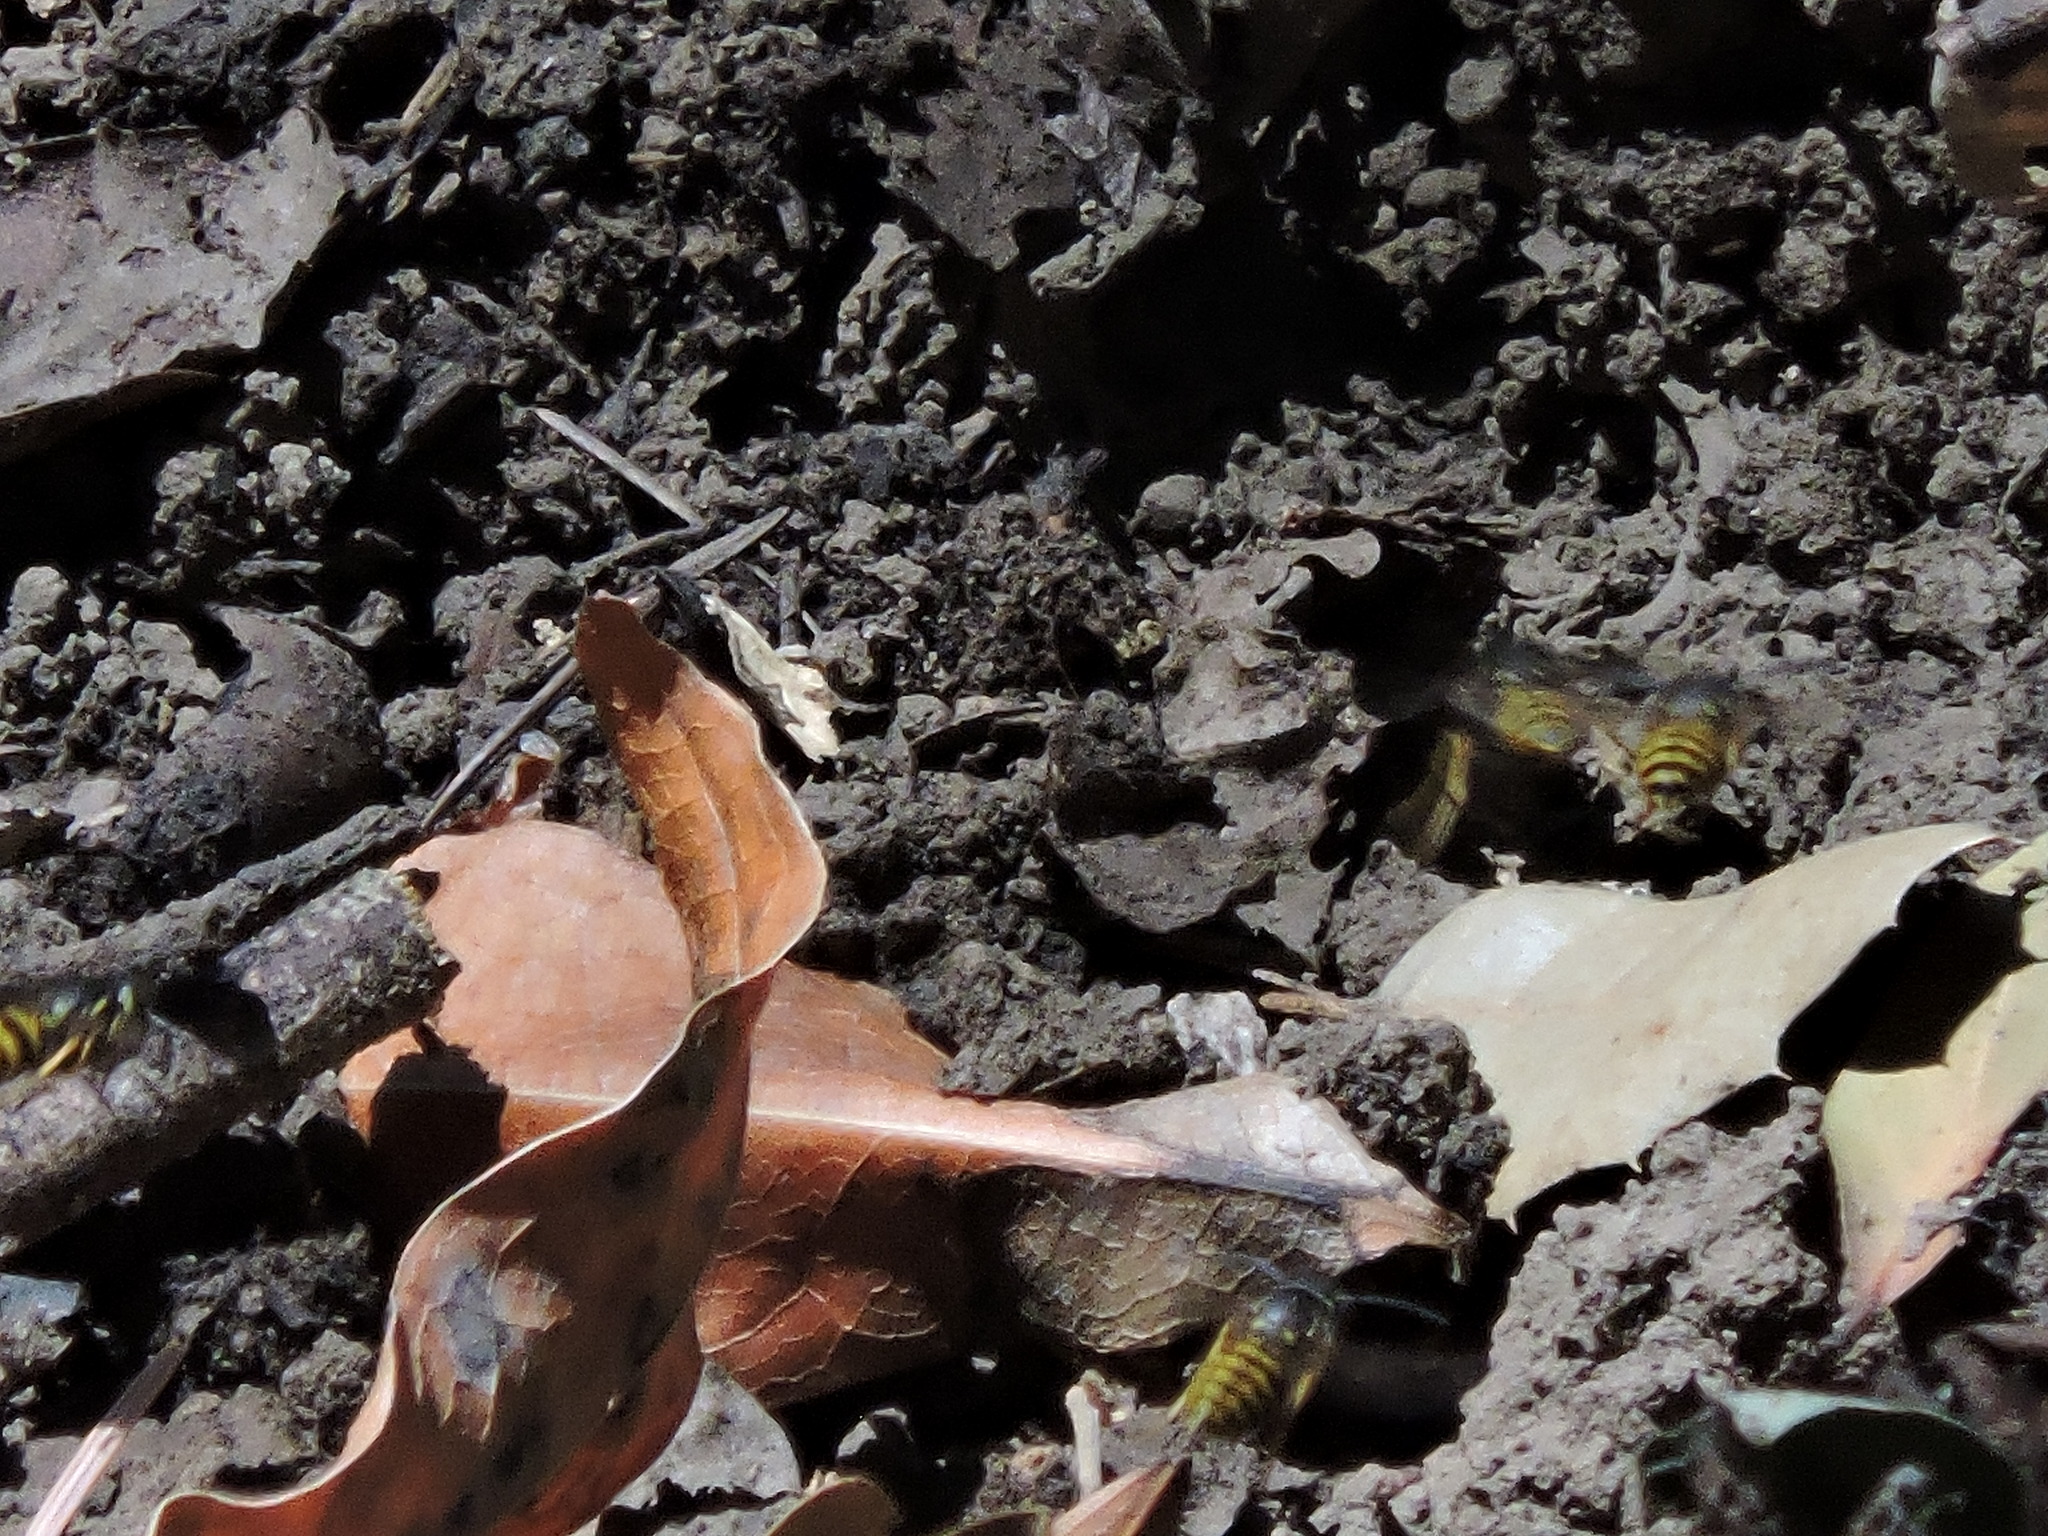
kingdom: Animalia
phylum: Arthropoda
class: Insecta
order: Hymenoptera
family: Vespidae
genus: Vespula
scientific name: Vespula
